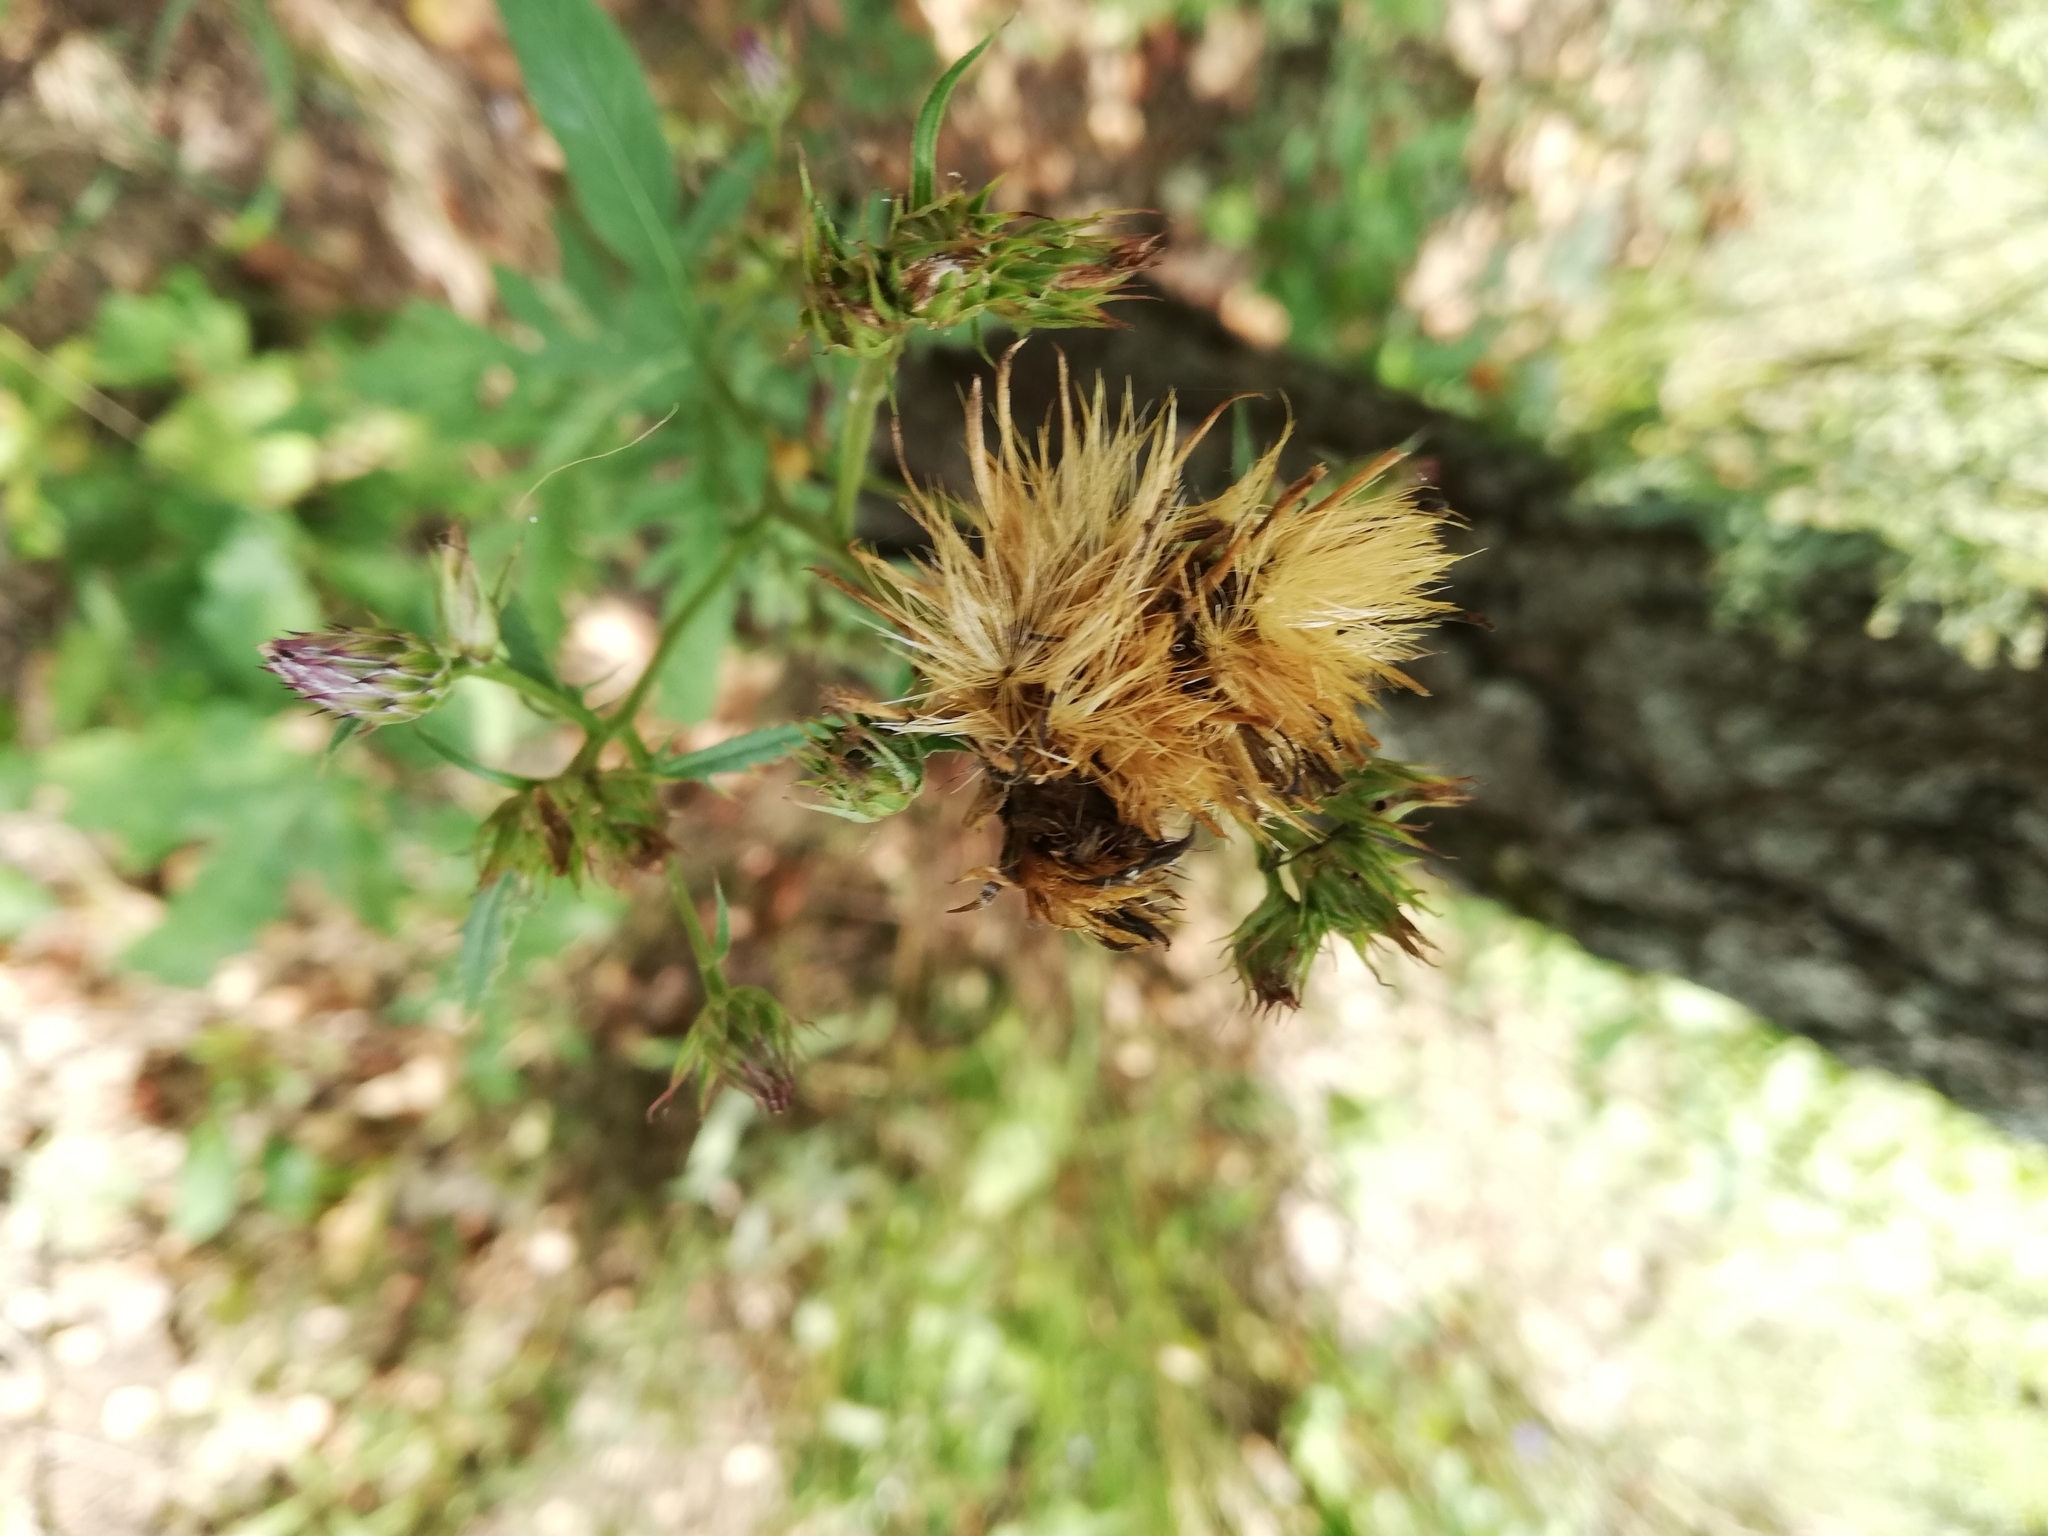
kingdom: Plantae
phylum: Tracheophyta
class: Magnoliopsida
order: Asterales
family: Asteraceae
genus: Serratula
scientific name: Serratula tinctoria
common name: Saw-wort
